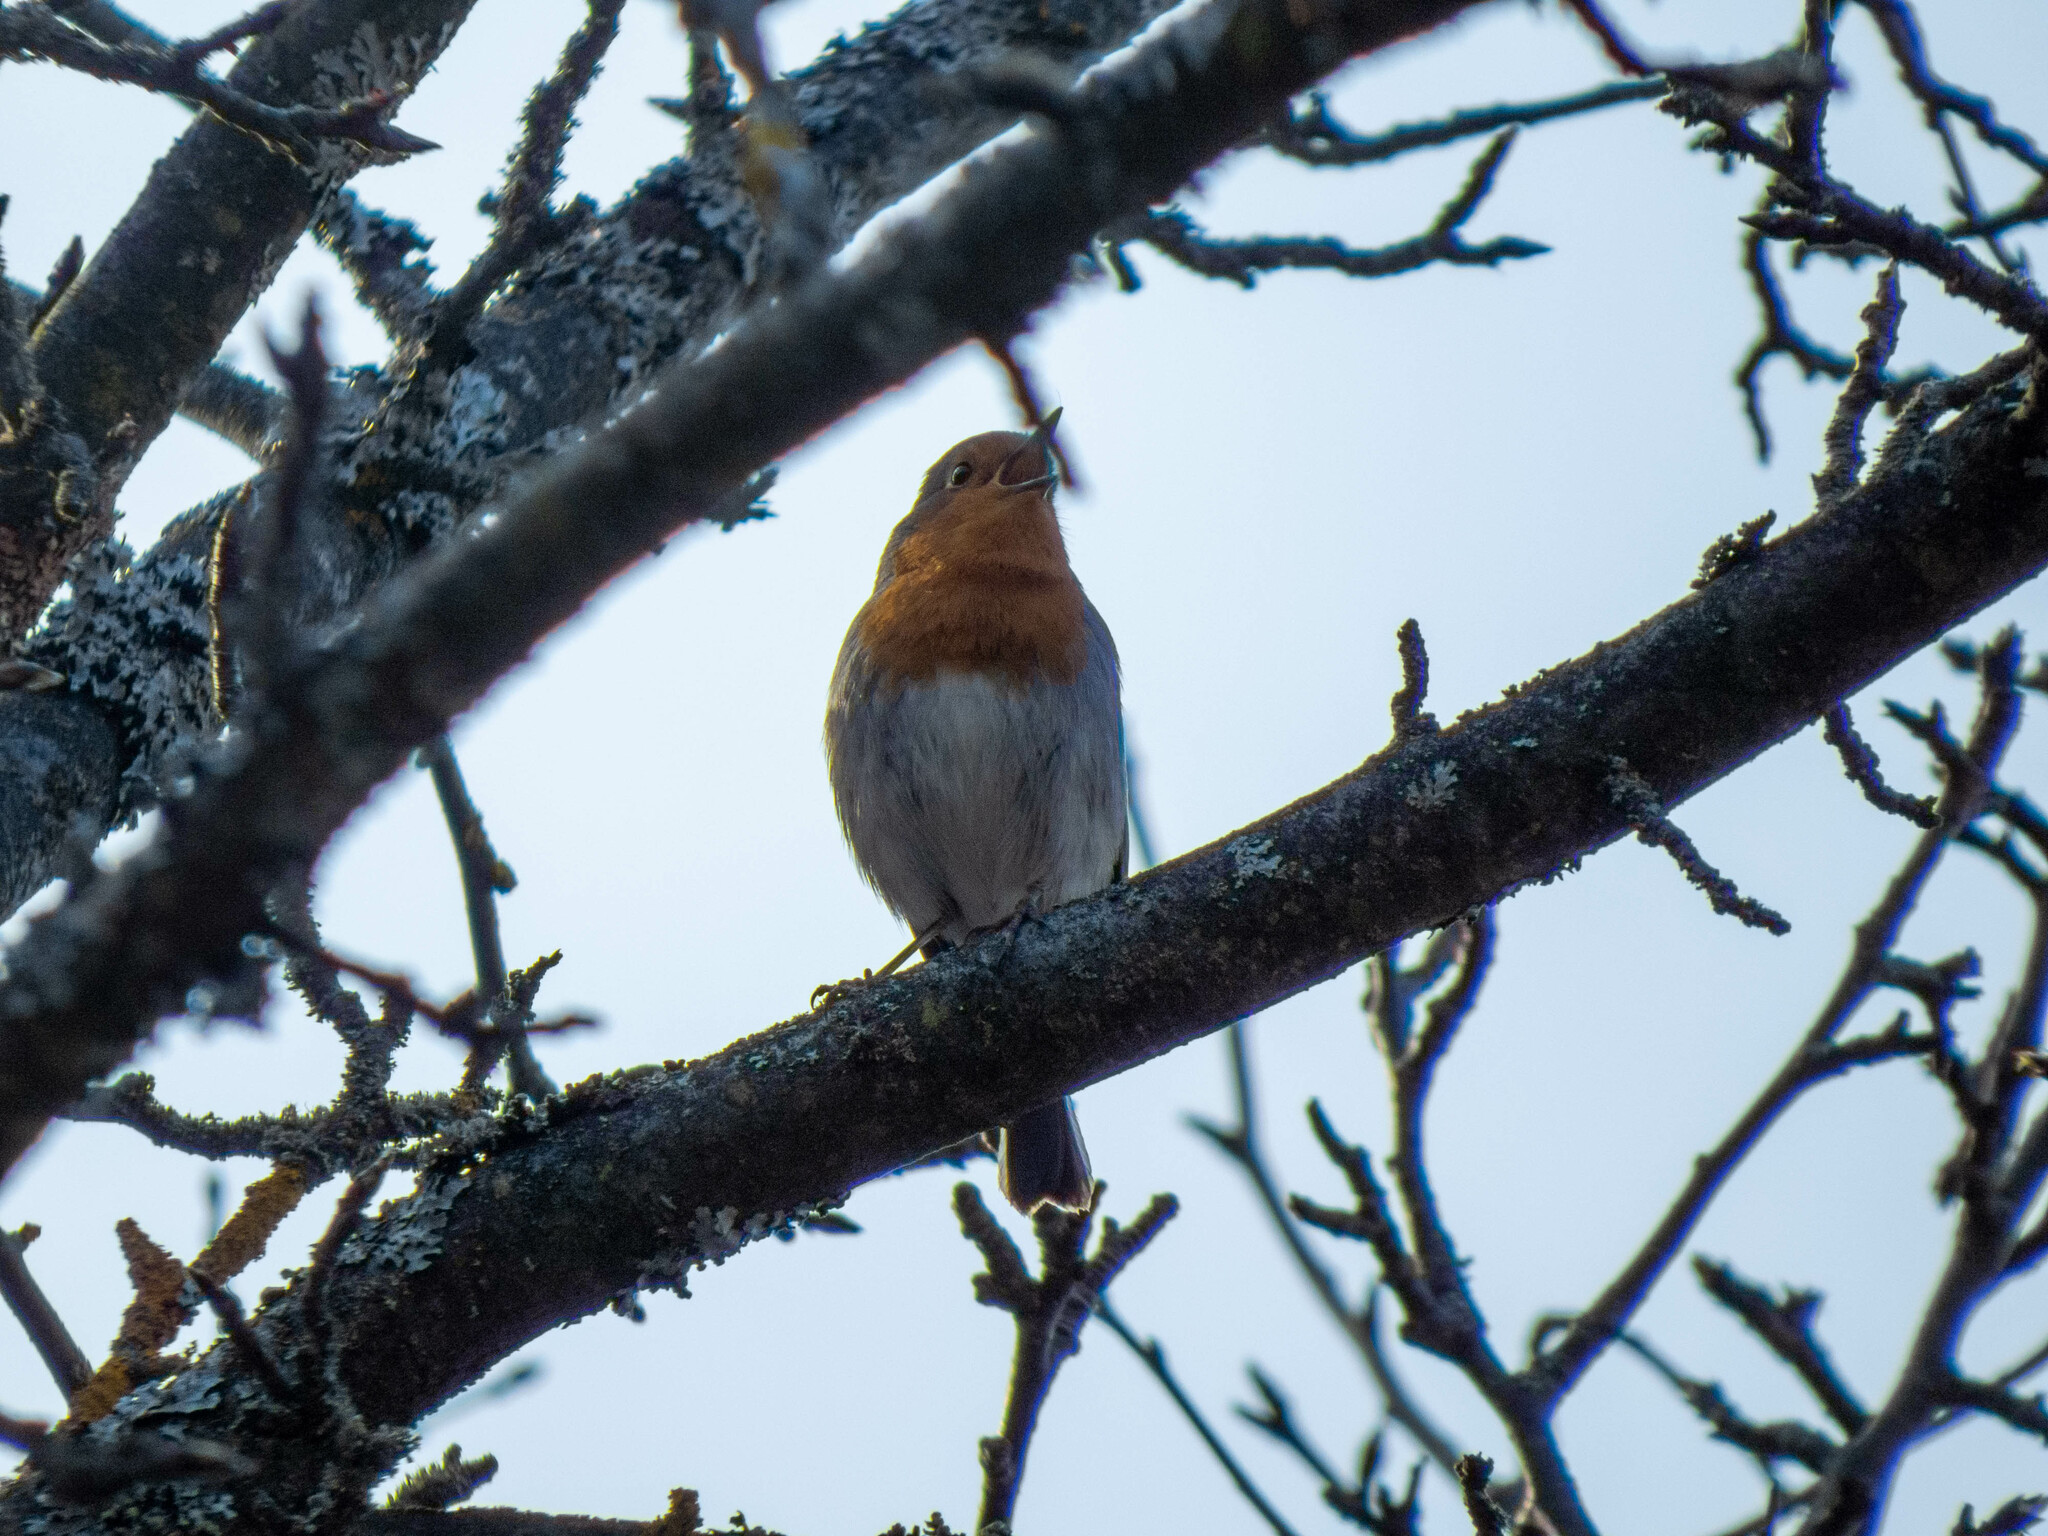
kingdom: Animalia
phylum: Chordata
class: Aves
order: Passeriformes
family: Muscicapidae
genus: Erithacus
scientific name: Erithacus rubecula
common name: European robin
